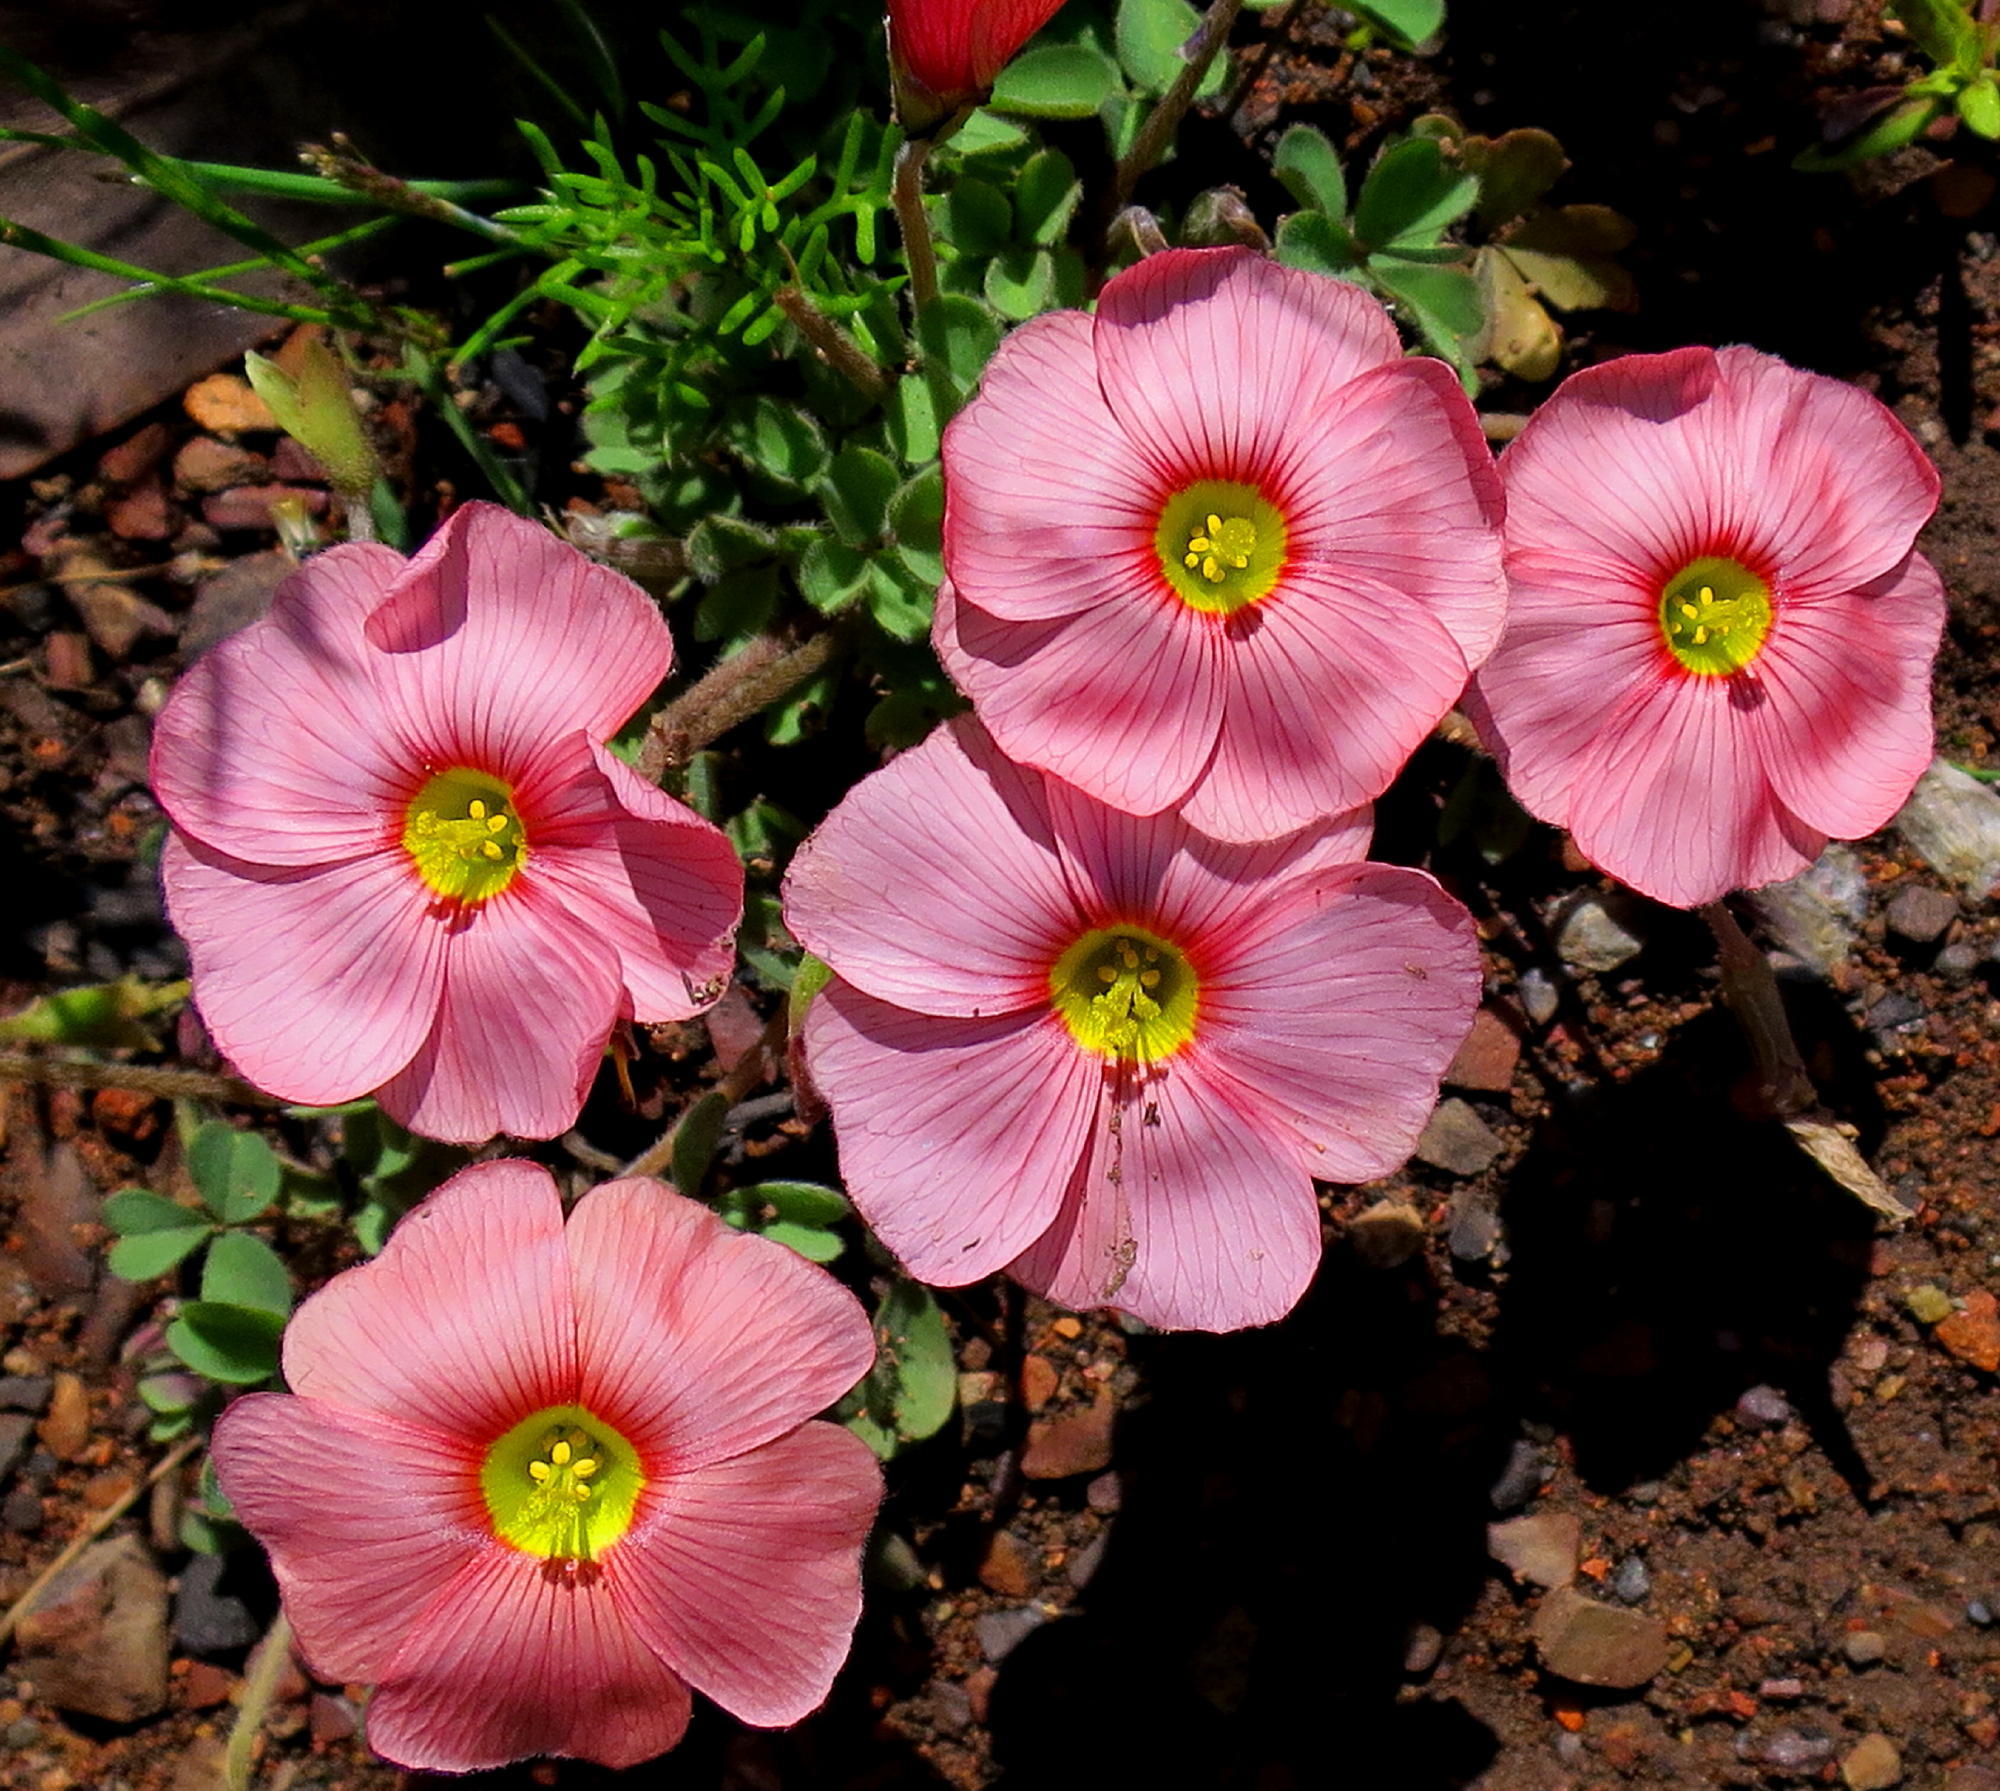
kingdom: Plantae
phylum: Tracheophyta
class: Magnoliopsida
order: Oxalidales
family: Oxalidaceae
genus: Oxalis
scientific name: Oxalis obtusa
